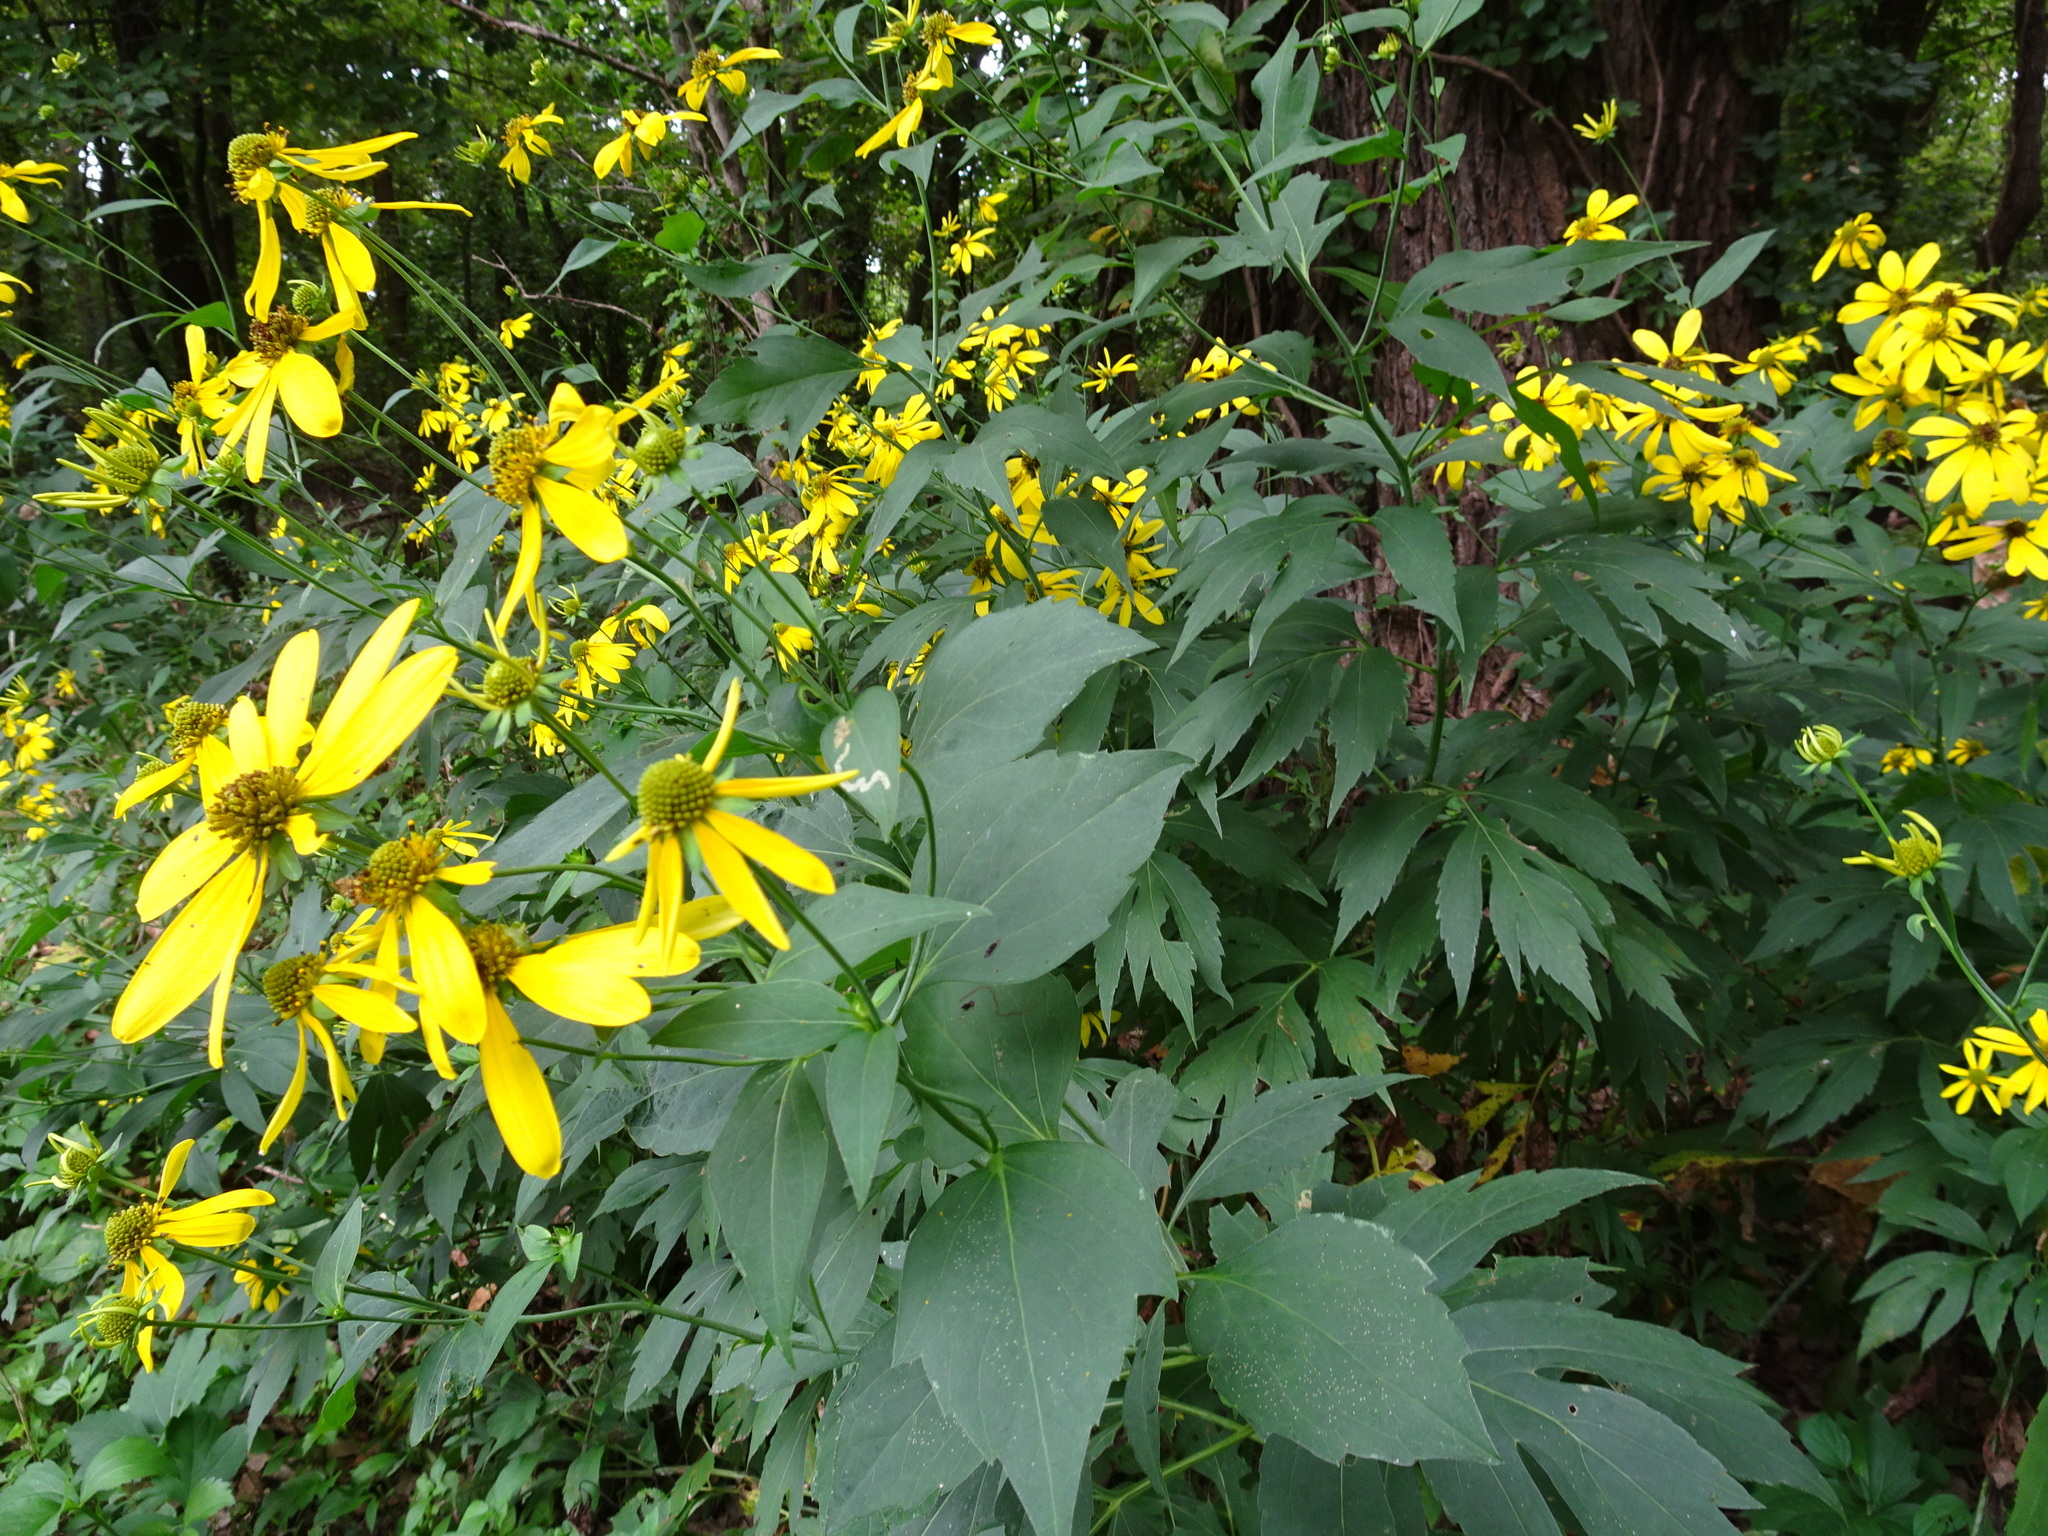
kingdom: Plantae
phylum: Tracheophyta
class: Magnoliopsida
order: Asterales
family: Asteraceae
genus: Rudbeckia
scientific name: Rudbeckia laciniata
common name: Coneflower
